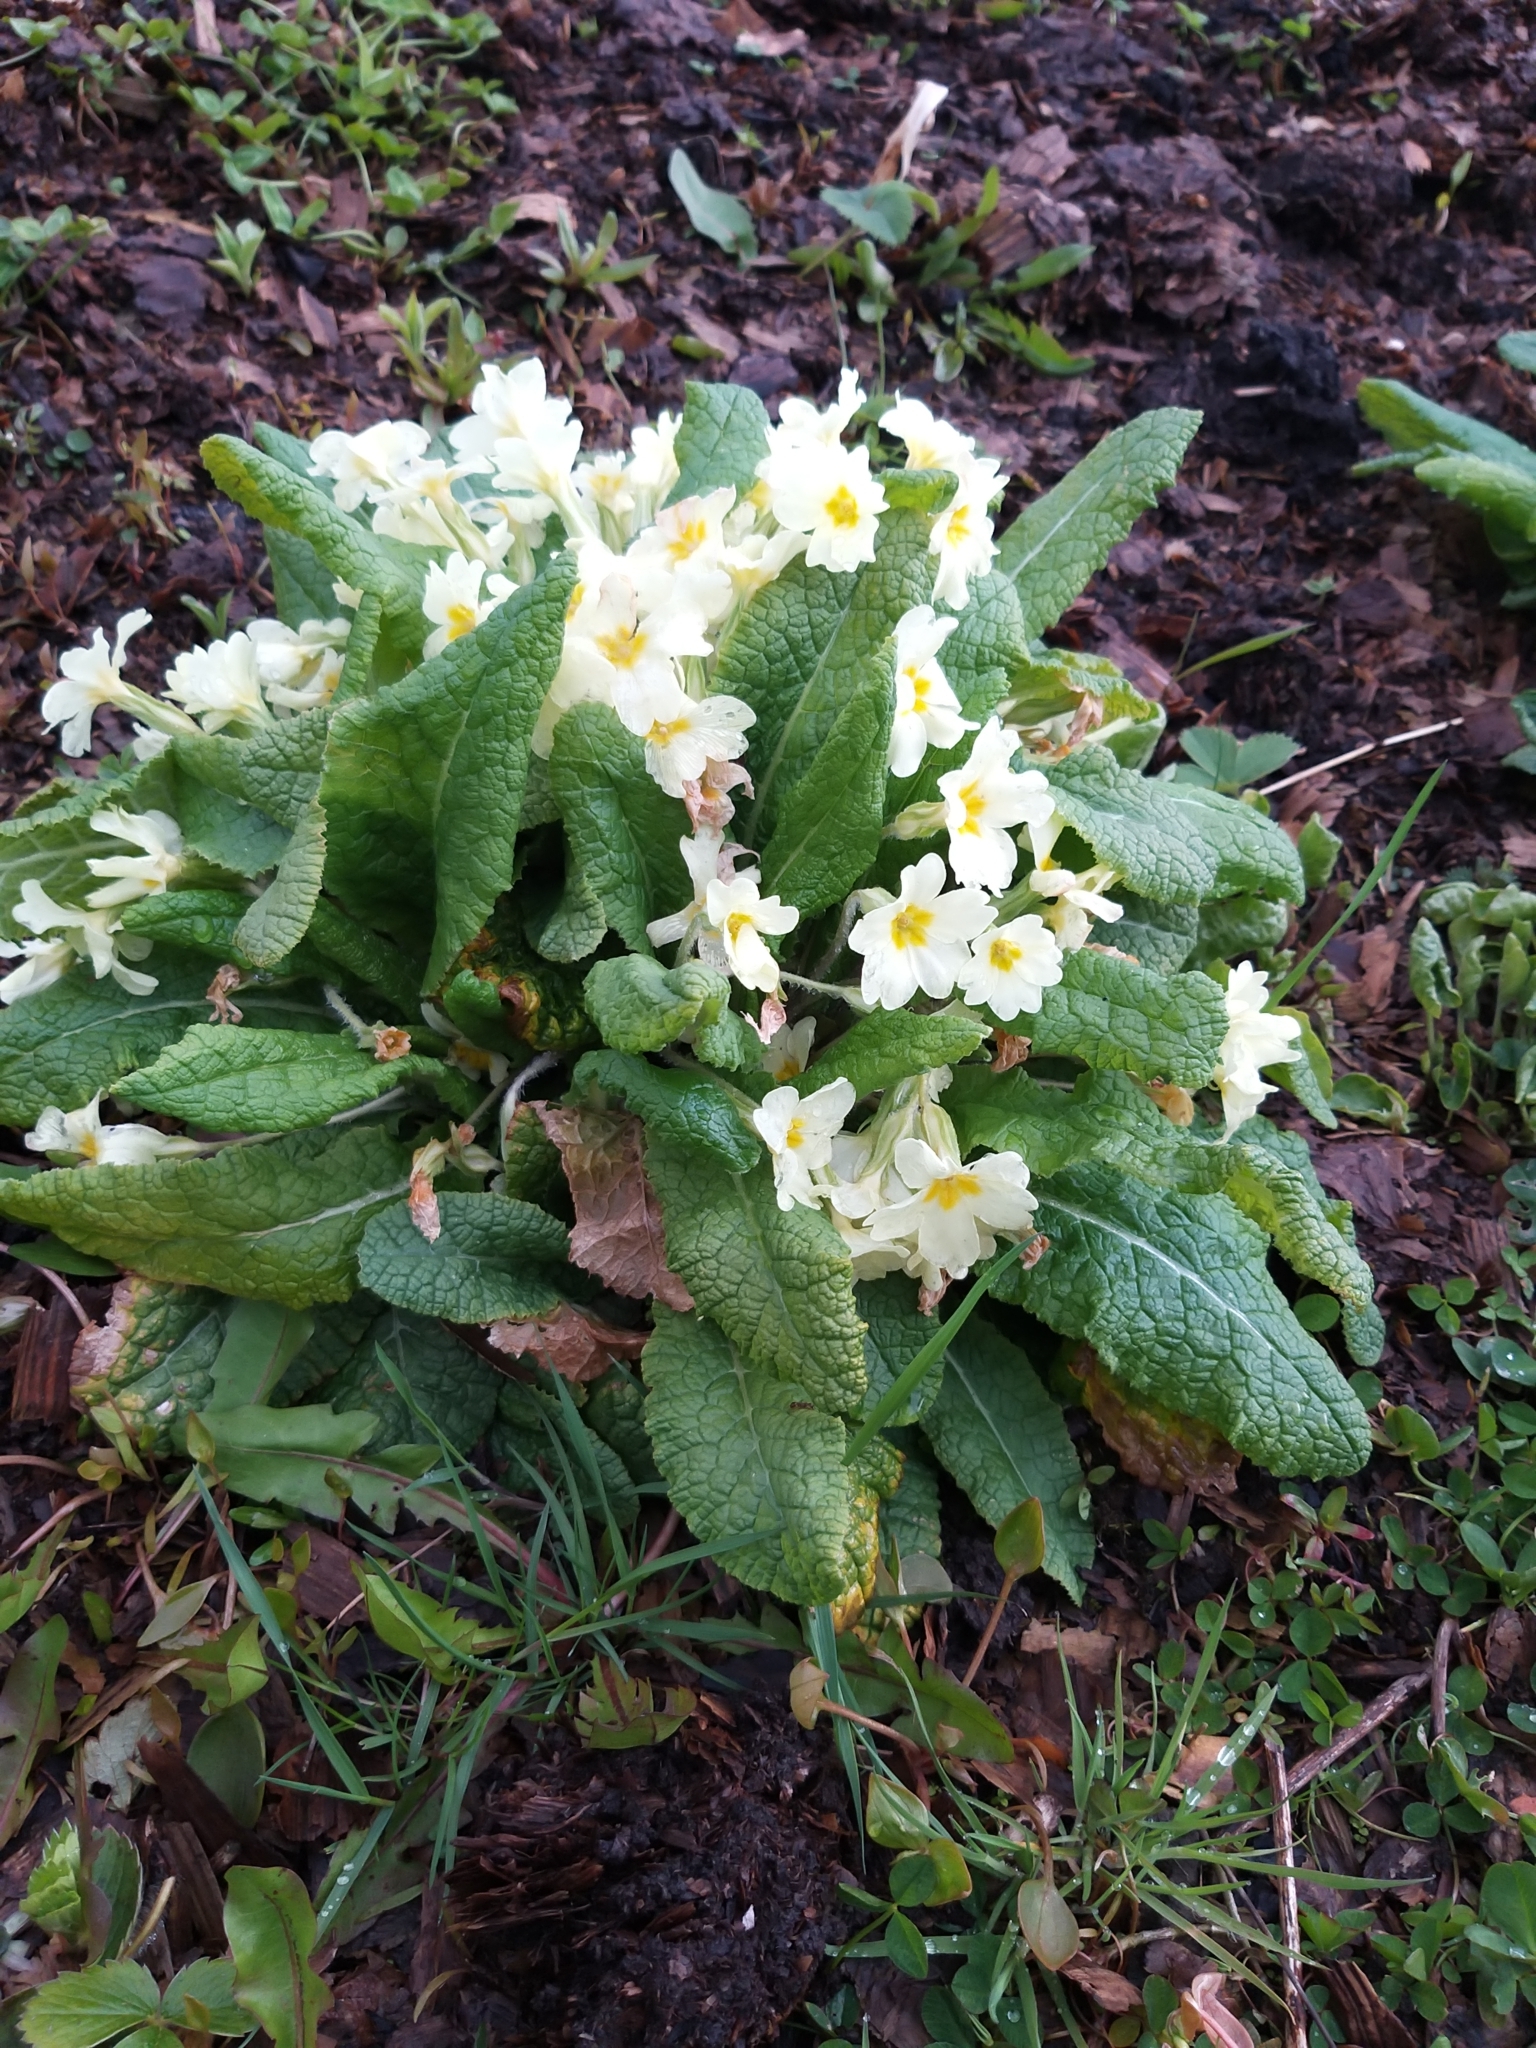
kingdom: Plantae
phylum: Tracheophyta
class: Magnoliopsida
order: Ericales
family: Primulaceae
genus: Primula
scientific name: Primula vulgaris
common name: Primrose
